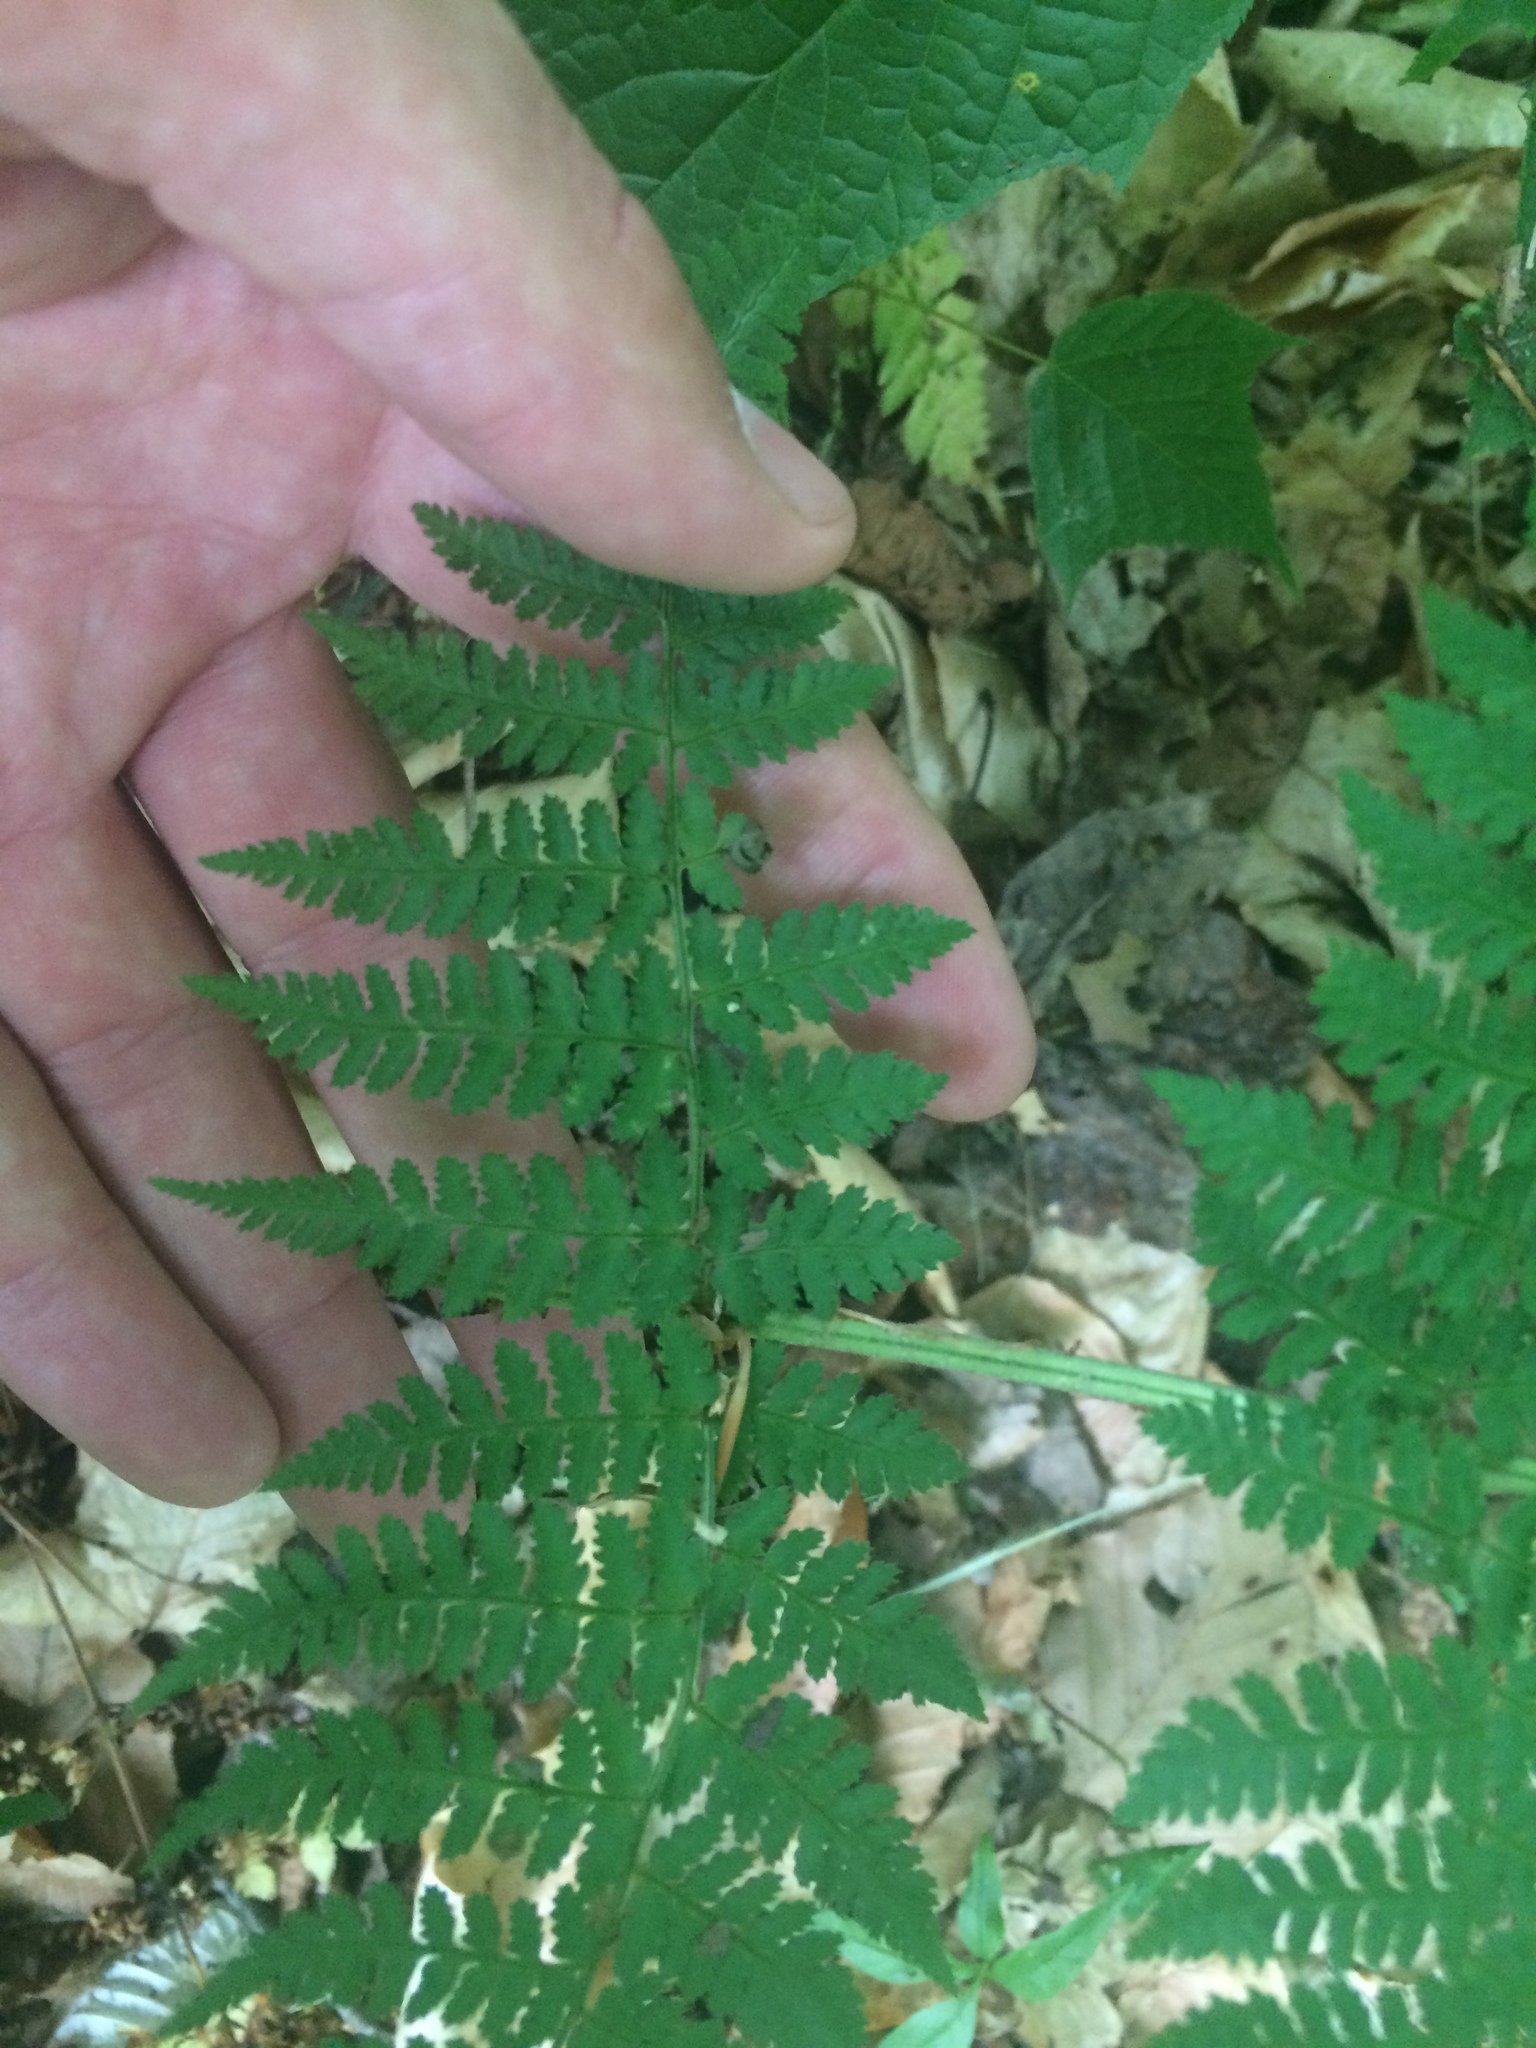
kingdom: Plantae
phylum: Tracheophyta
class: Polypodiopsida
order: Polypodiales
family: Dryopteridaceae
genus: Dryopteris
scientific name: Dryopteris intermedia
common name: Evergreen wood fern
